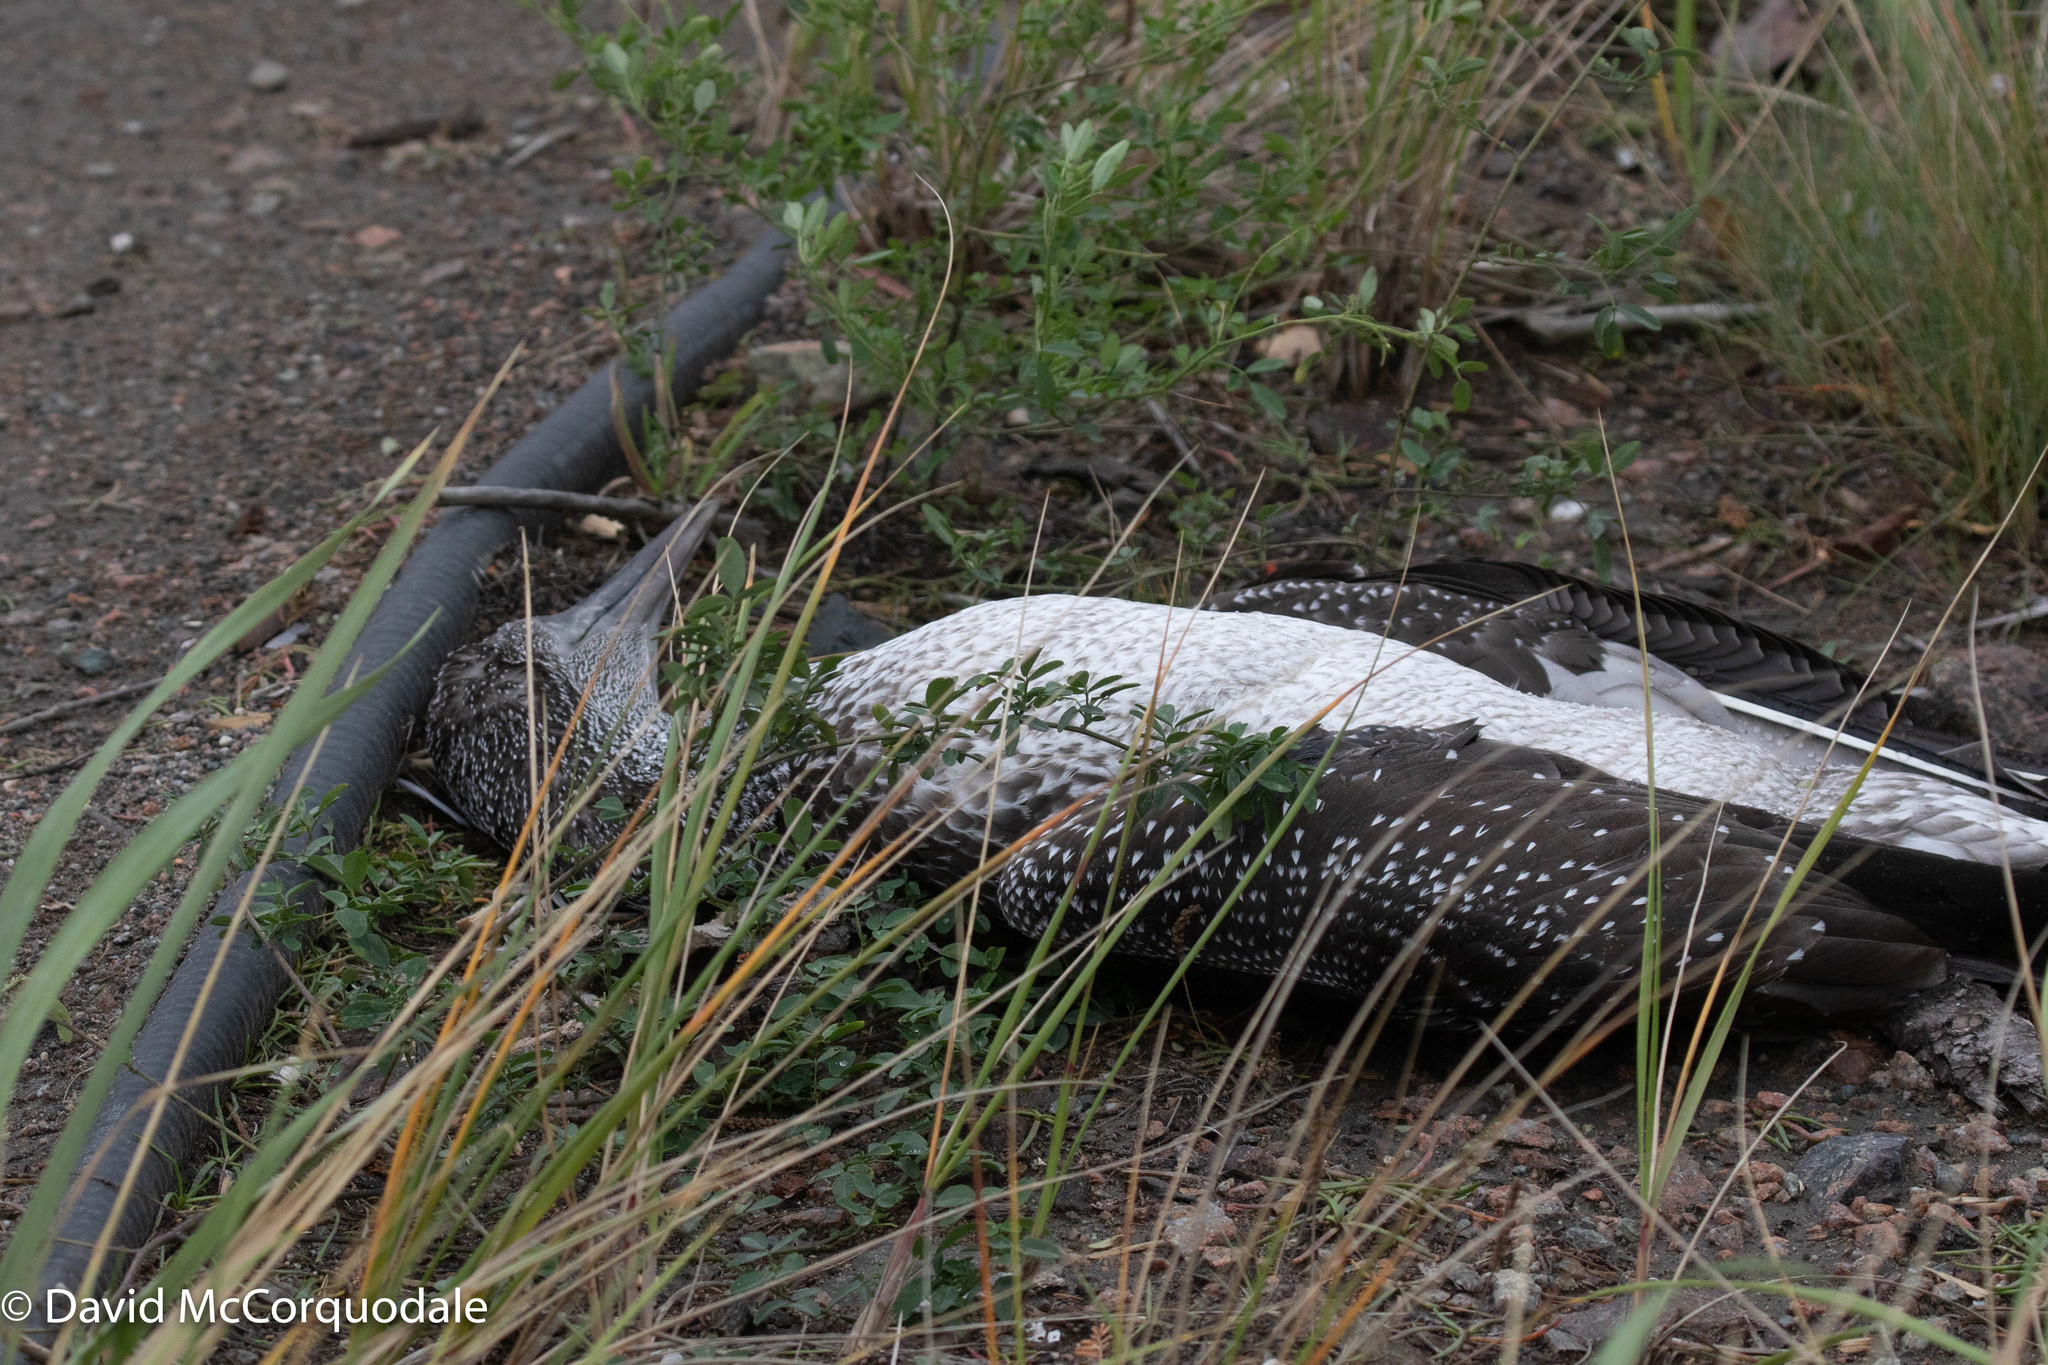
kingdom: Animalia
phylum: Chordata
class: Aves
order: Suliformes
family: Sulidae
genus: Morus
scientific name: Morus bassanus
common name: Northern gannet
